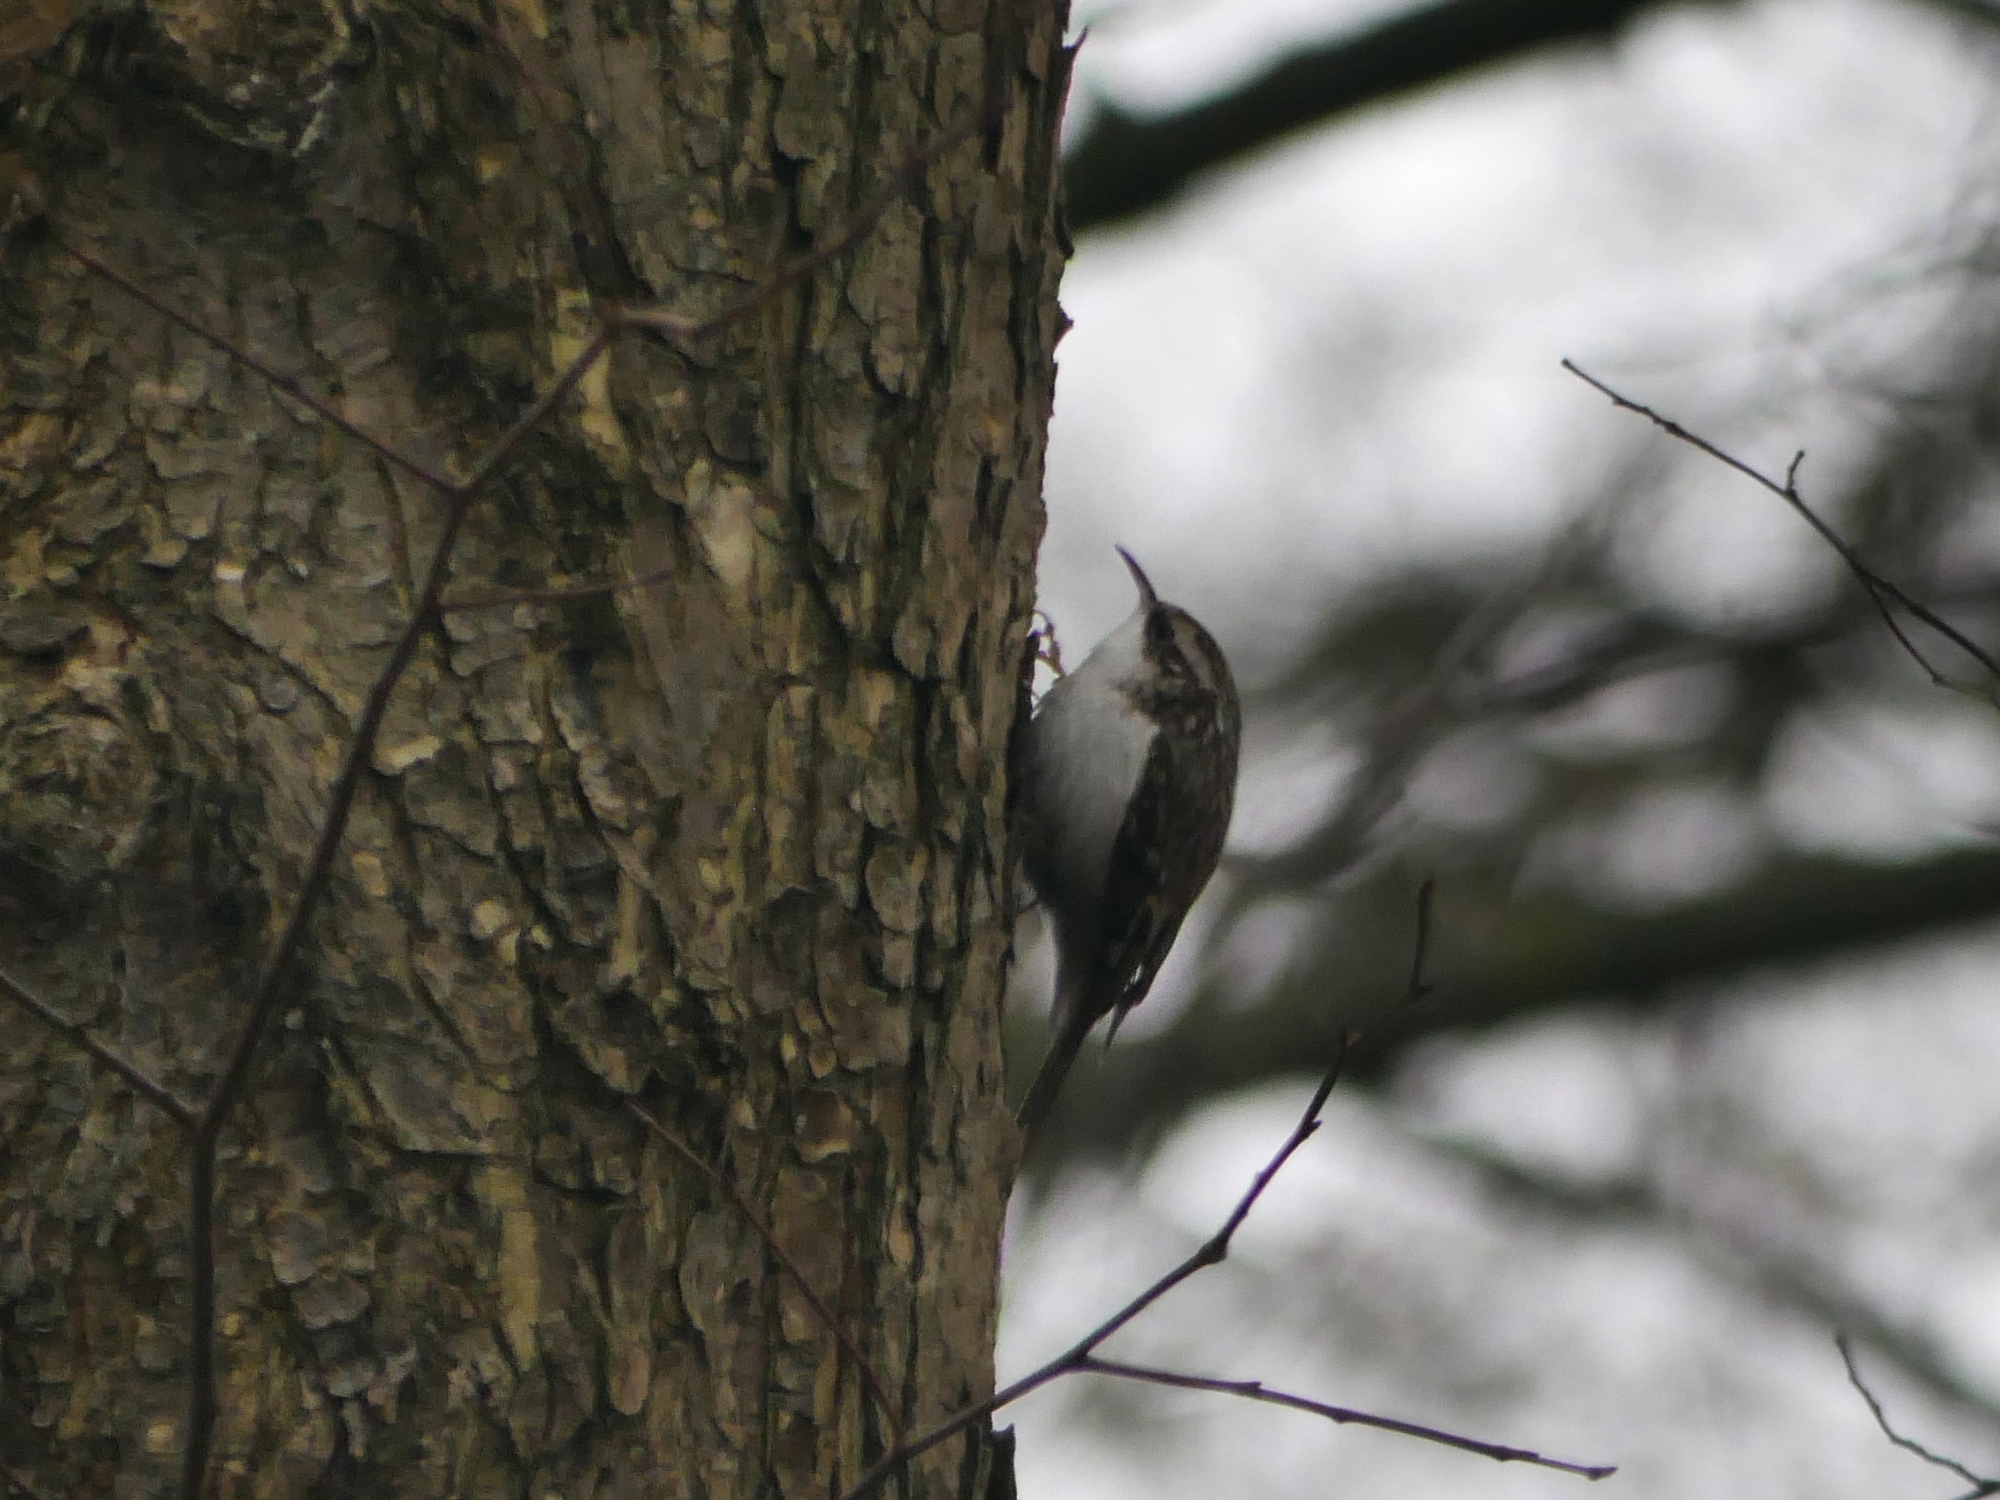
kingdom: Animalia
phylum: Chordata
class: Aves
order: Passeriformes
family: Certhiidae
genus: Certhia
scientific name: Certhia familiaris
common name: Eurasian treecreeper
